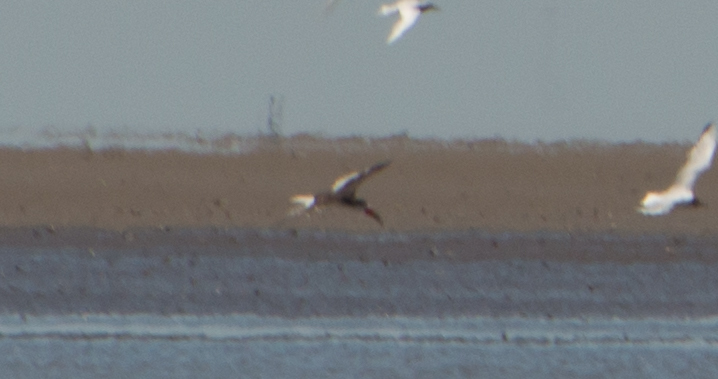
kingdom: Animalia
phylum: Chordata
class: Aves
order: Charadriiformes
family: Laridae
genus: Rynchops
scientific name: Rynchops niger
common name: Black skimmer
